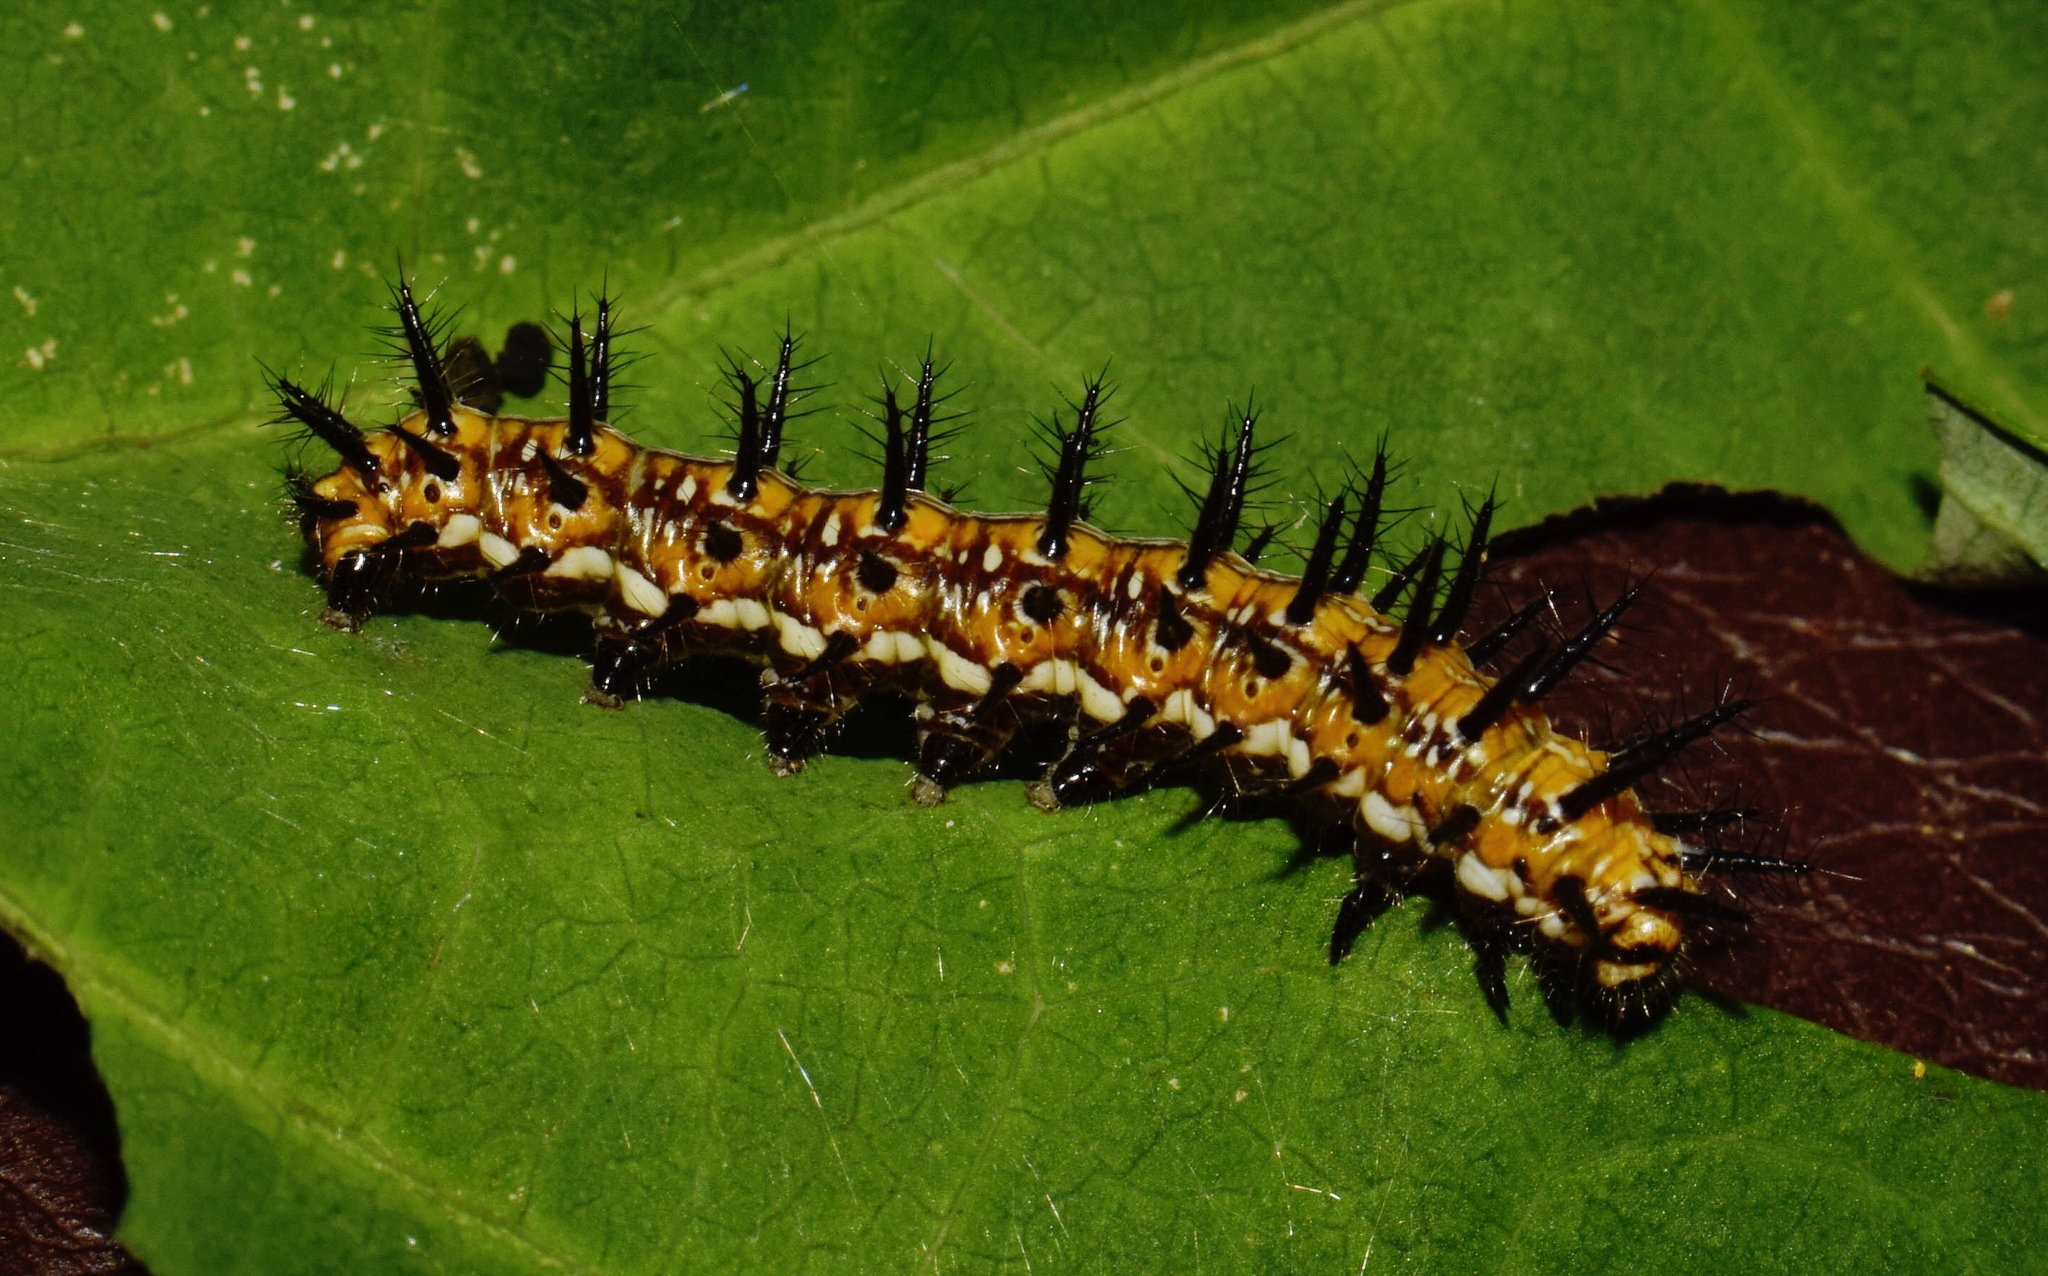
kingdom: Animalia
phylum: Arthropoda
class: Insecta
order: Lepidoptera
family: Nymphalidae
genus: Stephenia
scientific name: Stephenia
